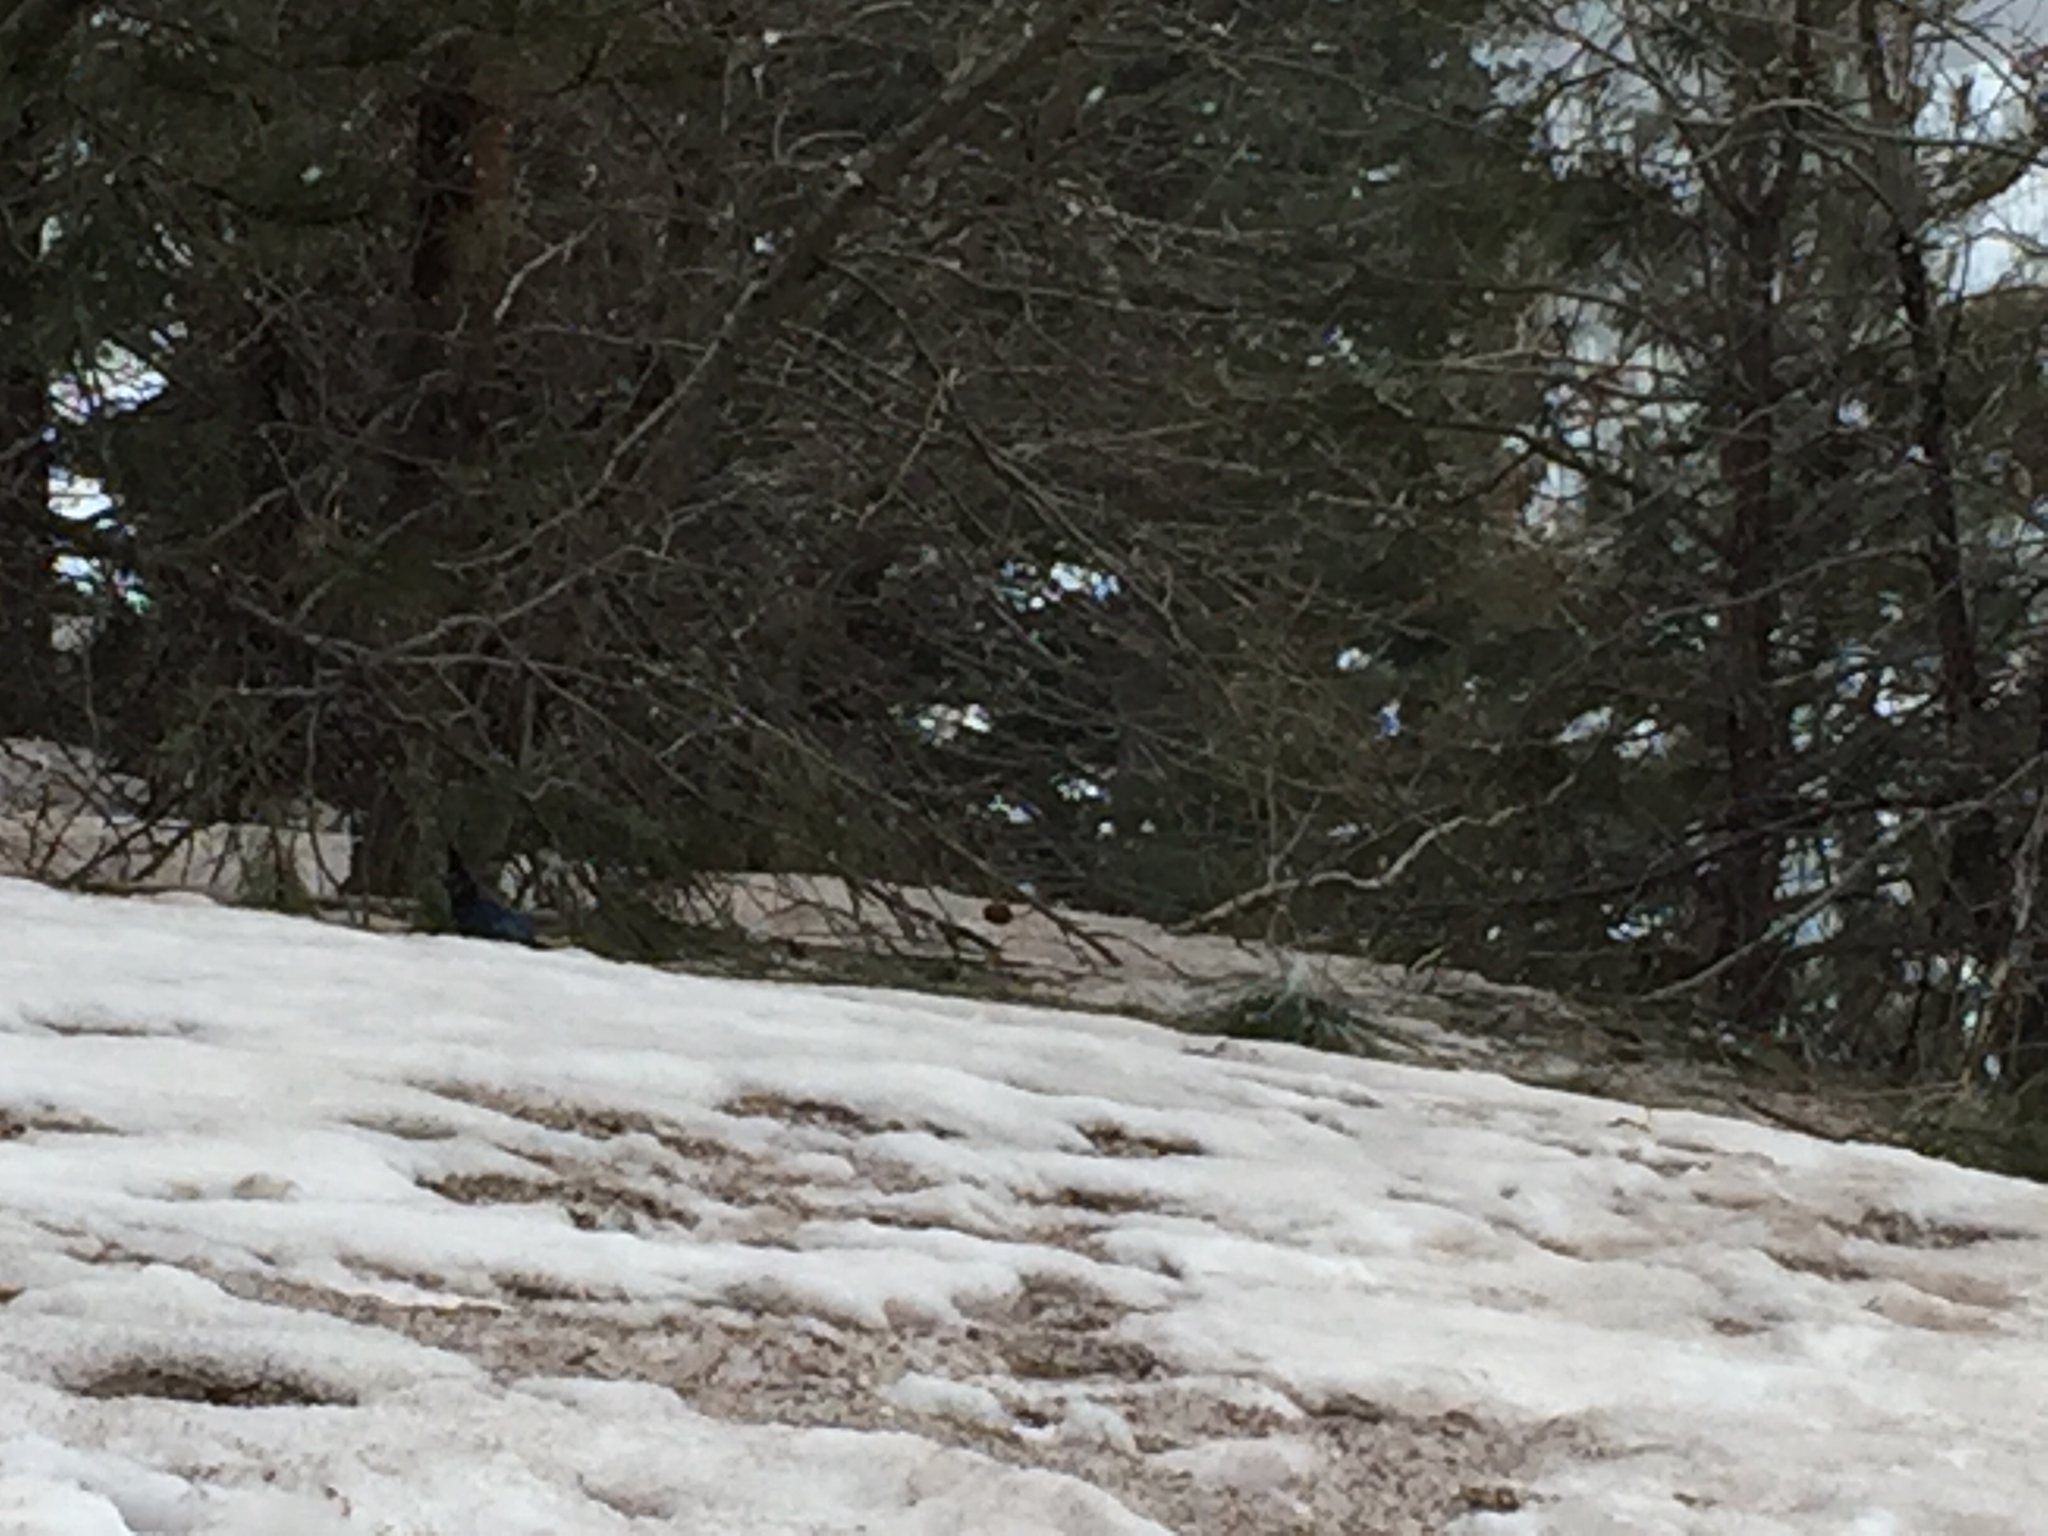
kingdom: Animalia
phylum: Chordata
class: Aves
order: Passeriformes
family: Corvidae
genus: Cyanocitta
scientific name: Cyanocitta stelleri
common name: Steller's jay
